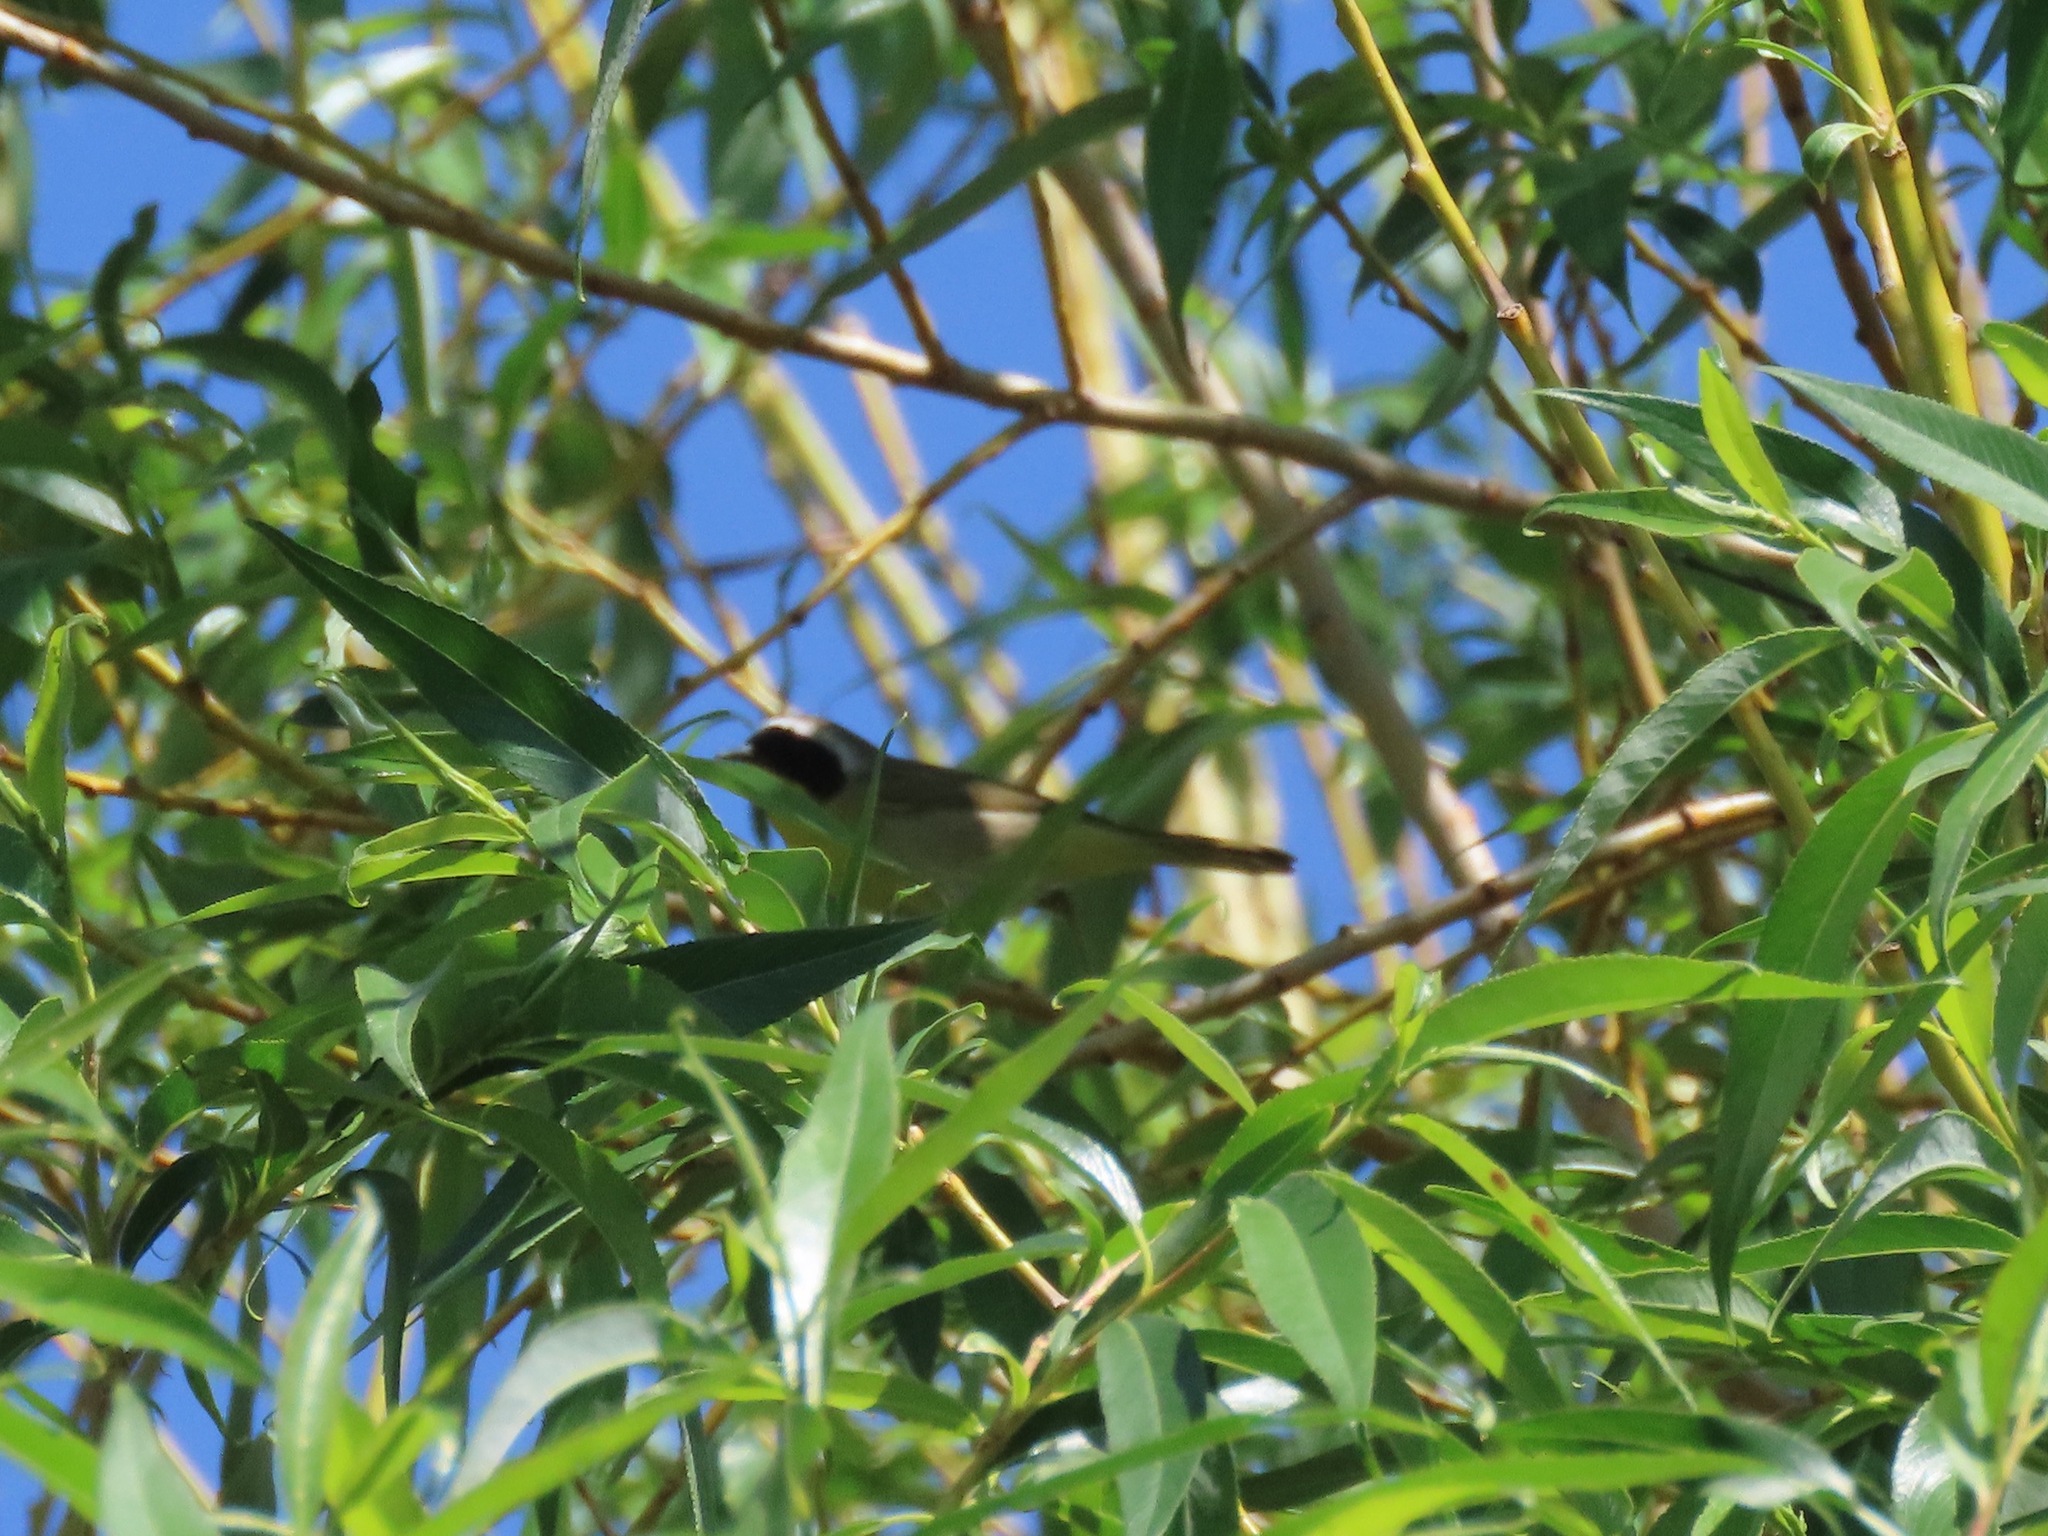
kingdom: Animalia
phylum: Chordata
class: Aves
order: Passeriformes
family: Parulidae
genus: Geothlypis
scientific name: Geothlypis trichas
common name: Common yellowthroat
